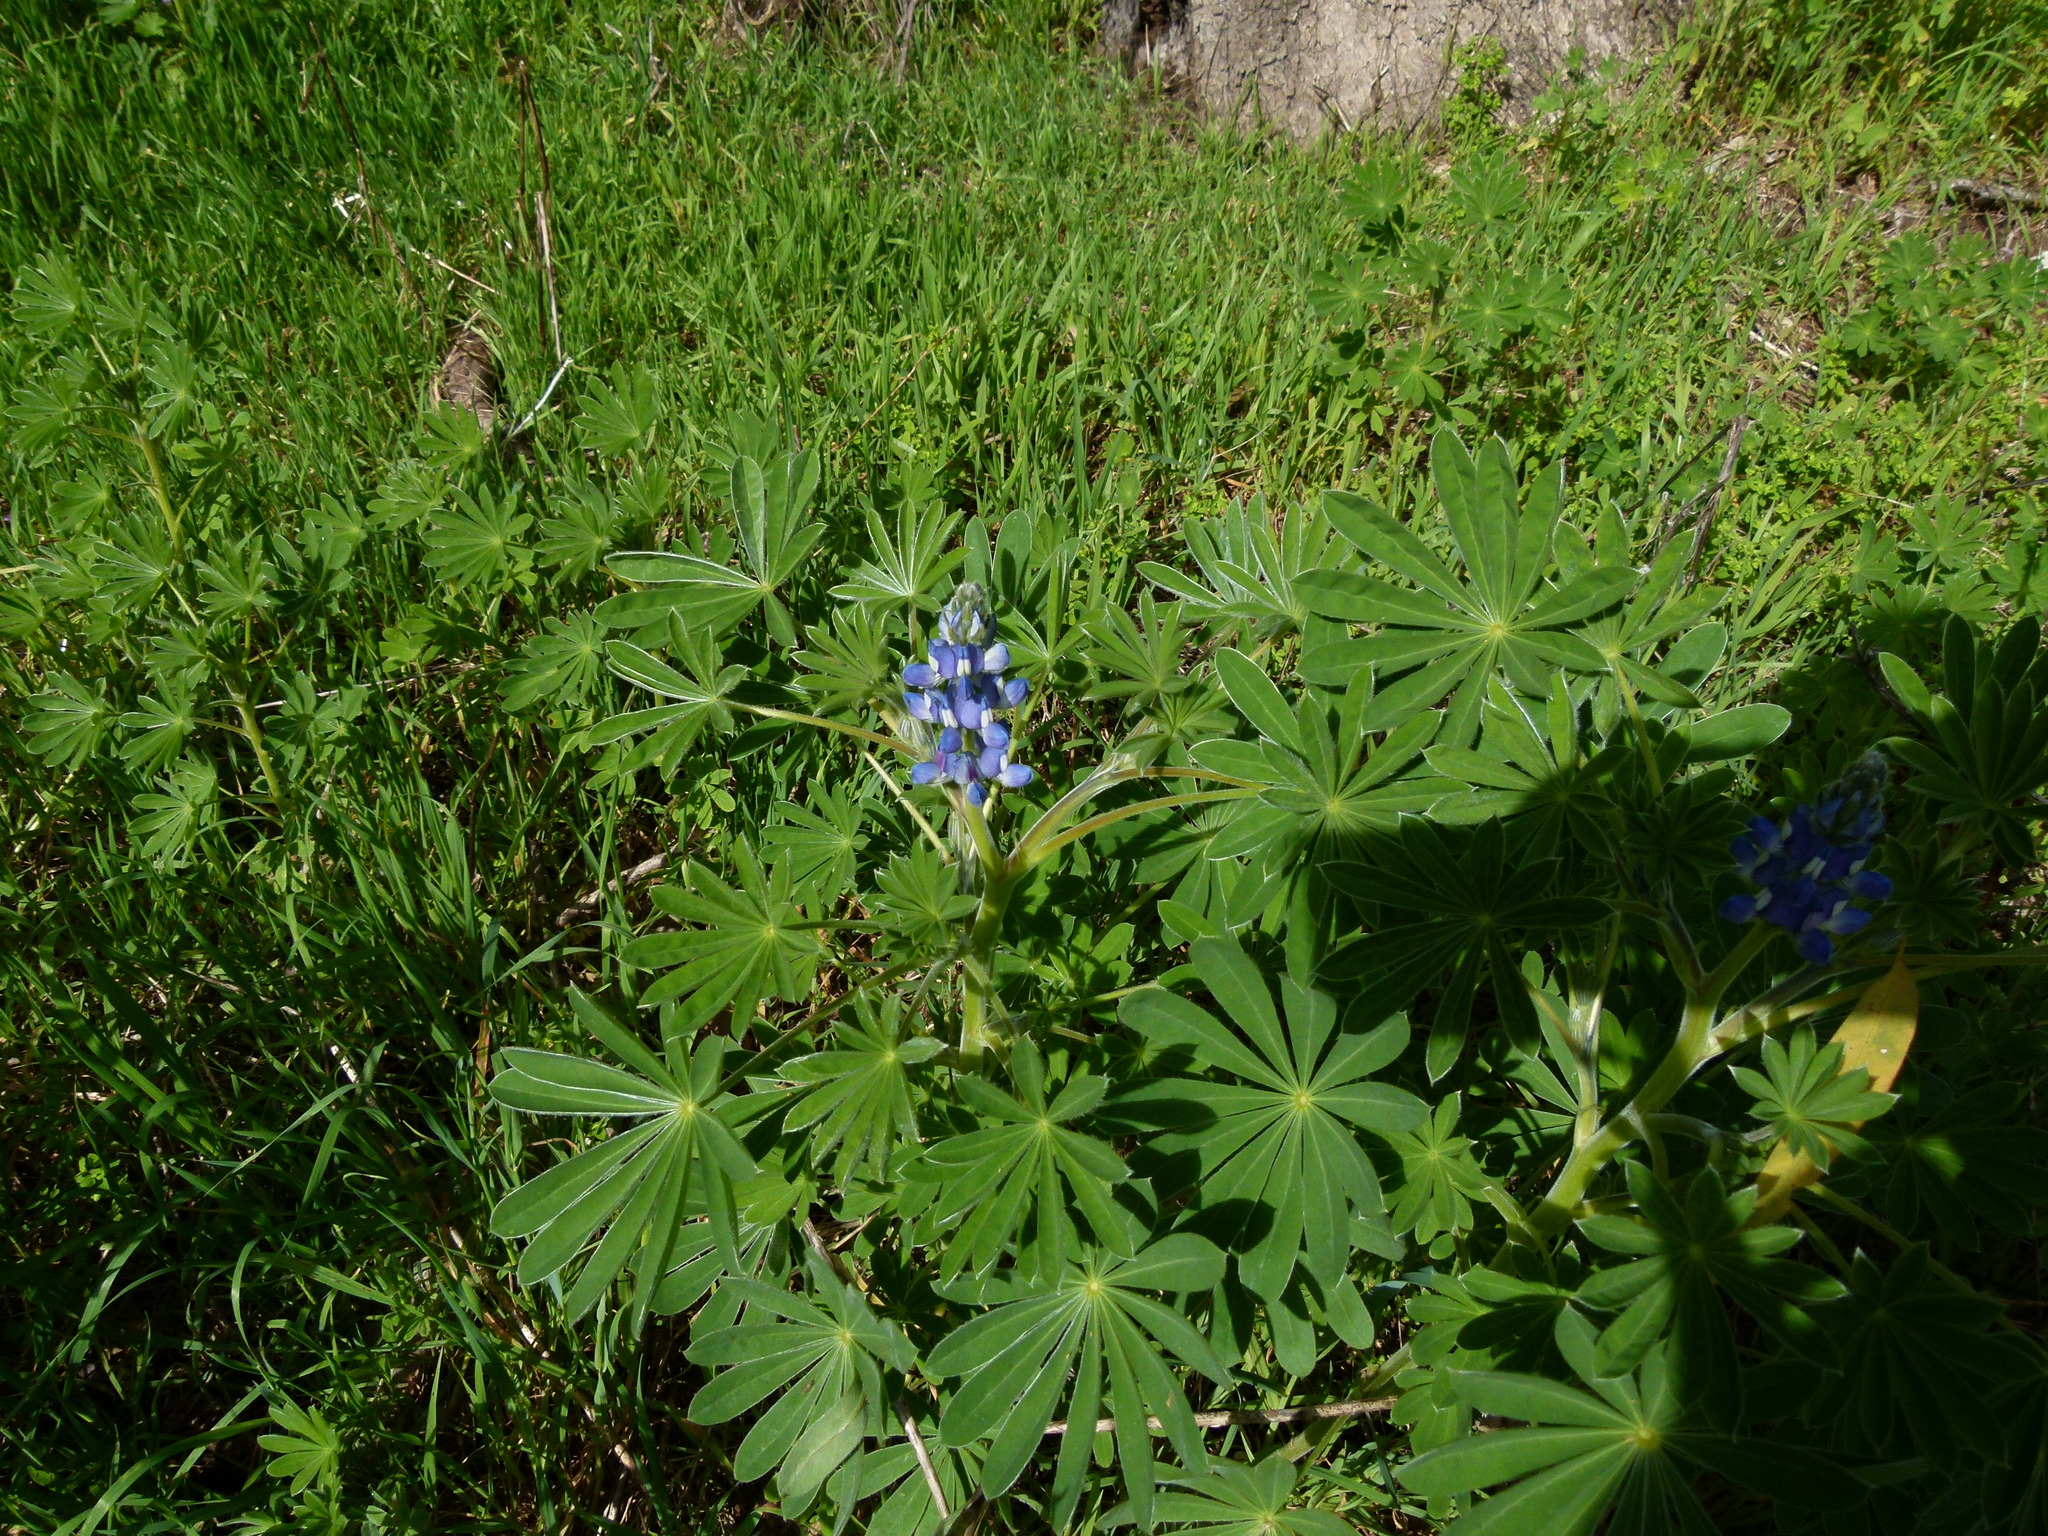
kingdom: Plantae
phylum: Tracheophyta
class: Magnoliopsida
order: Fabales
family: Fabaceae
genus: Lupinus
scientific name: Lupinus cosentinii
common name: Hairy blue lupin
